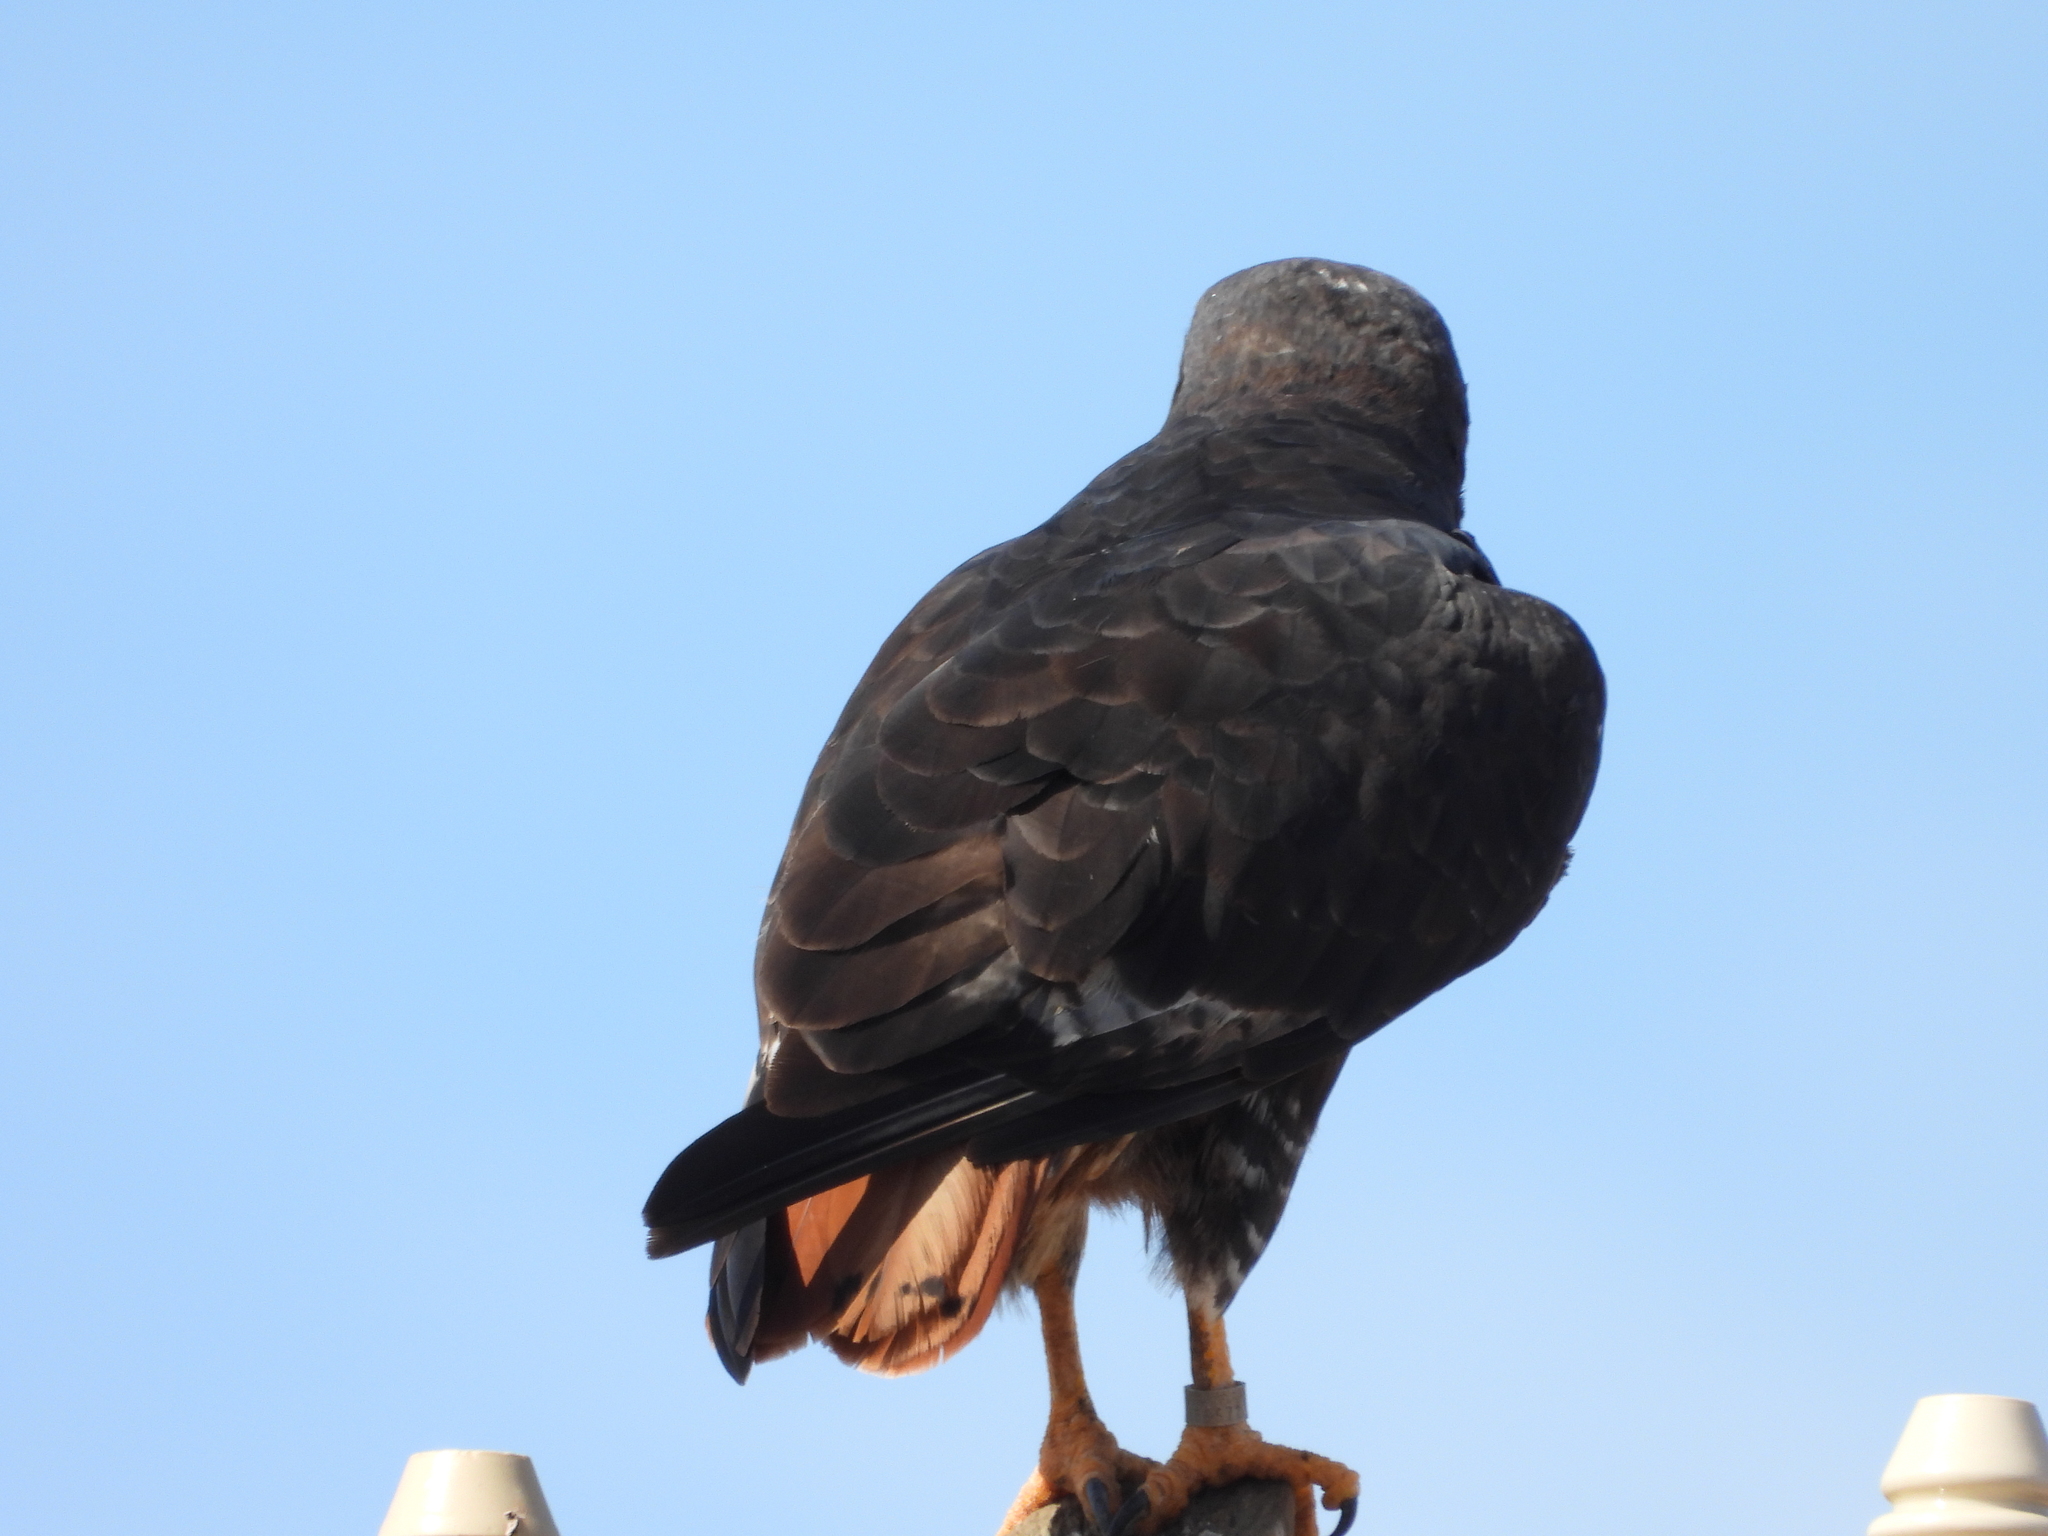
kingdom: Animalia
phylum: Chordata
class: Aves
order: Accipitriformes
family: Accipitridae
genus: Buteo
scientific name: Buteo rufofuscus
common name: Jackal buzzard
